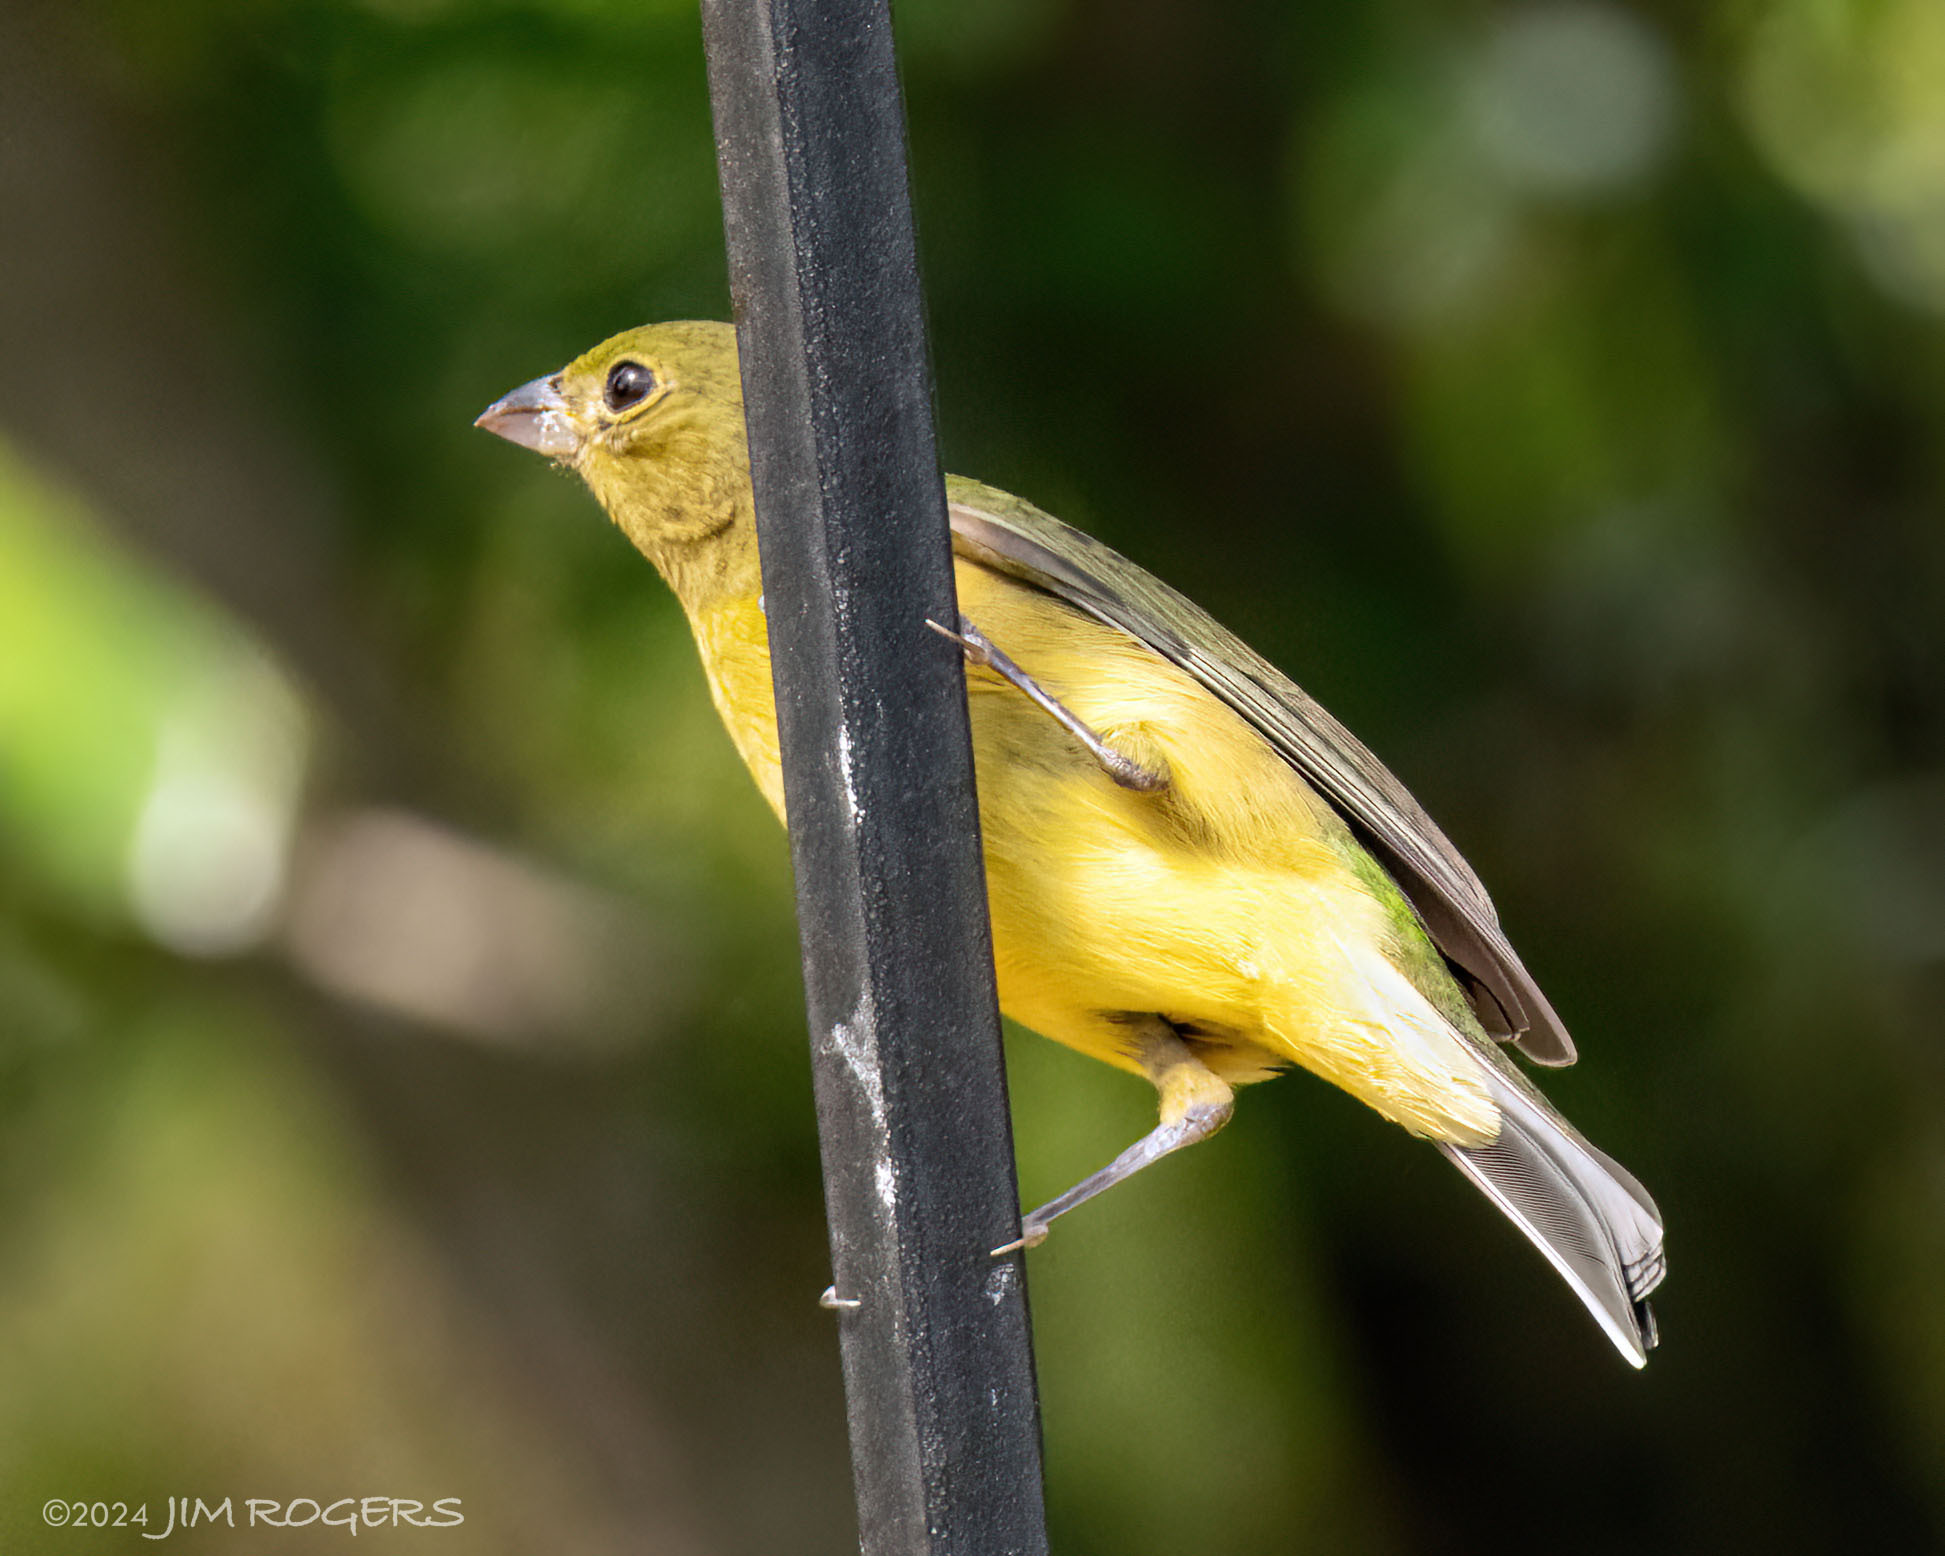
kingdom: Animalia
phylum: Chordata
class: Aves
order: Passeriformes
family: Cardinalidae
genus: Passerina
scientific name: Passerina ciris
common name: Painted bunting
